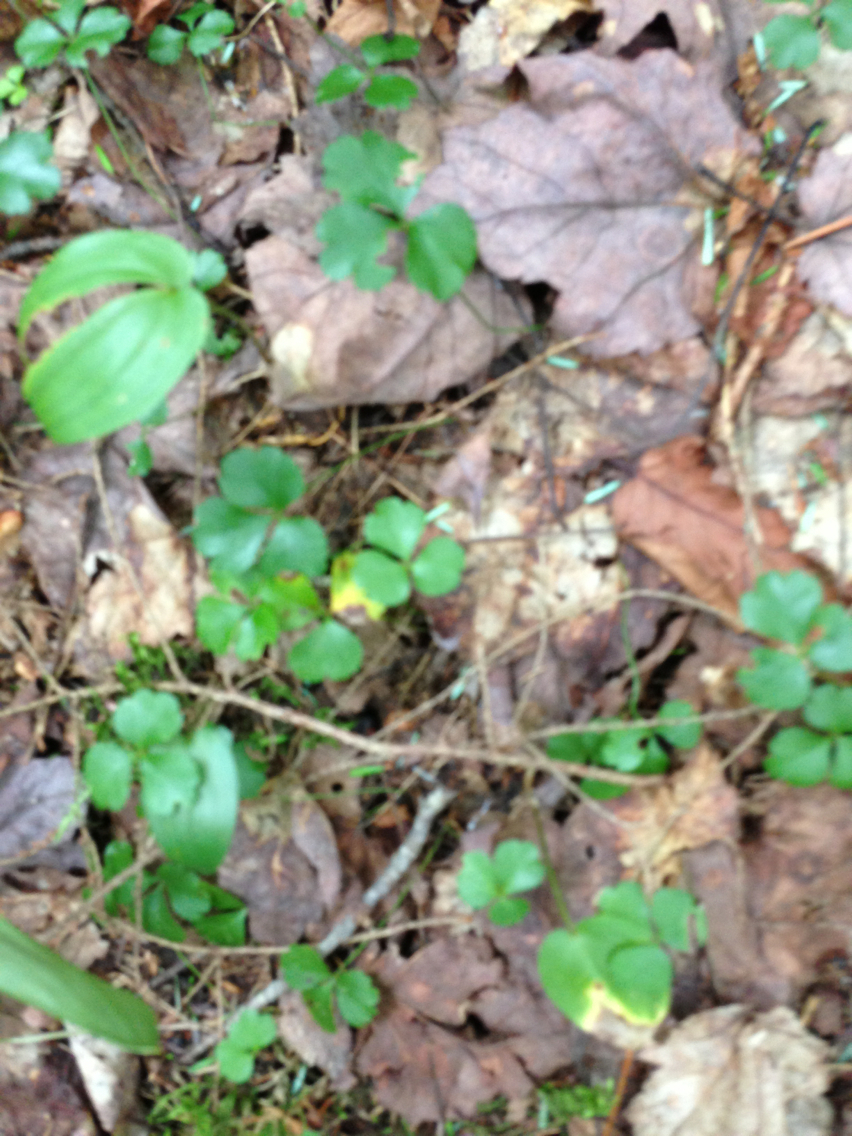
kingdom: Plantae
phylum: Tracheophyta
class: Magnoliopsida
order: Ranunculales
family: Ranunculaceae
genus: Coptis
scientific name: Coptis trifolia
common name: Canker-root
